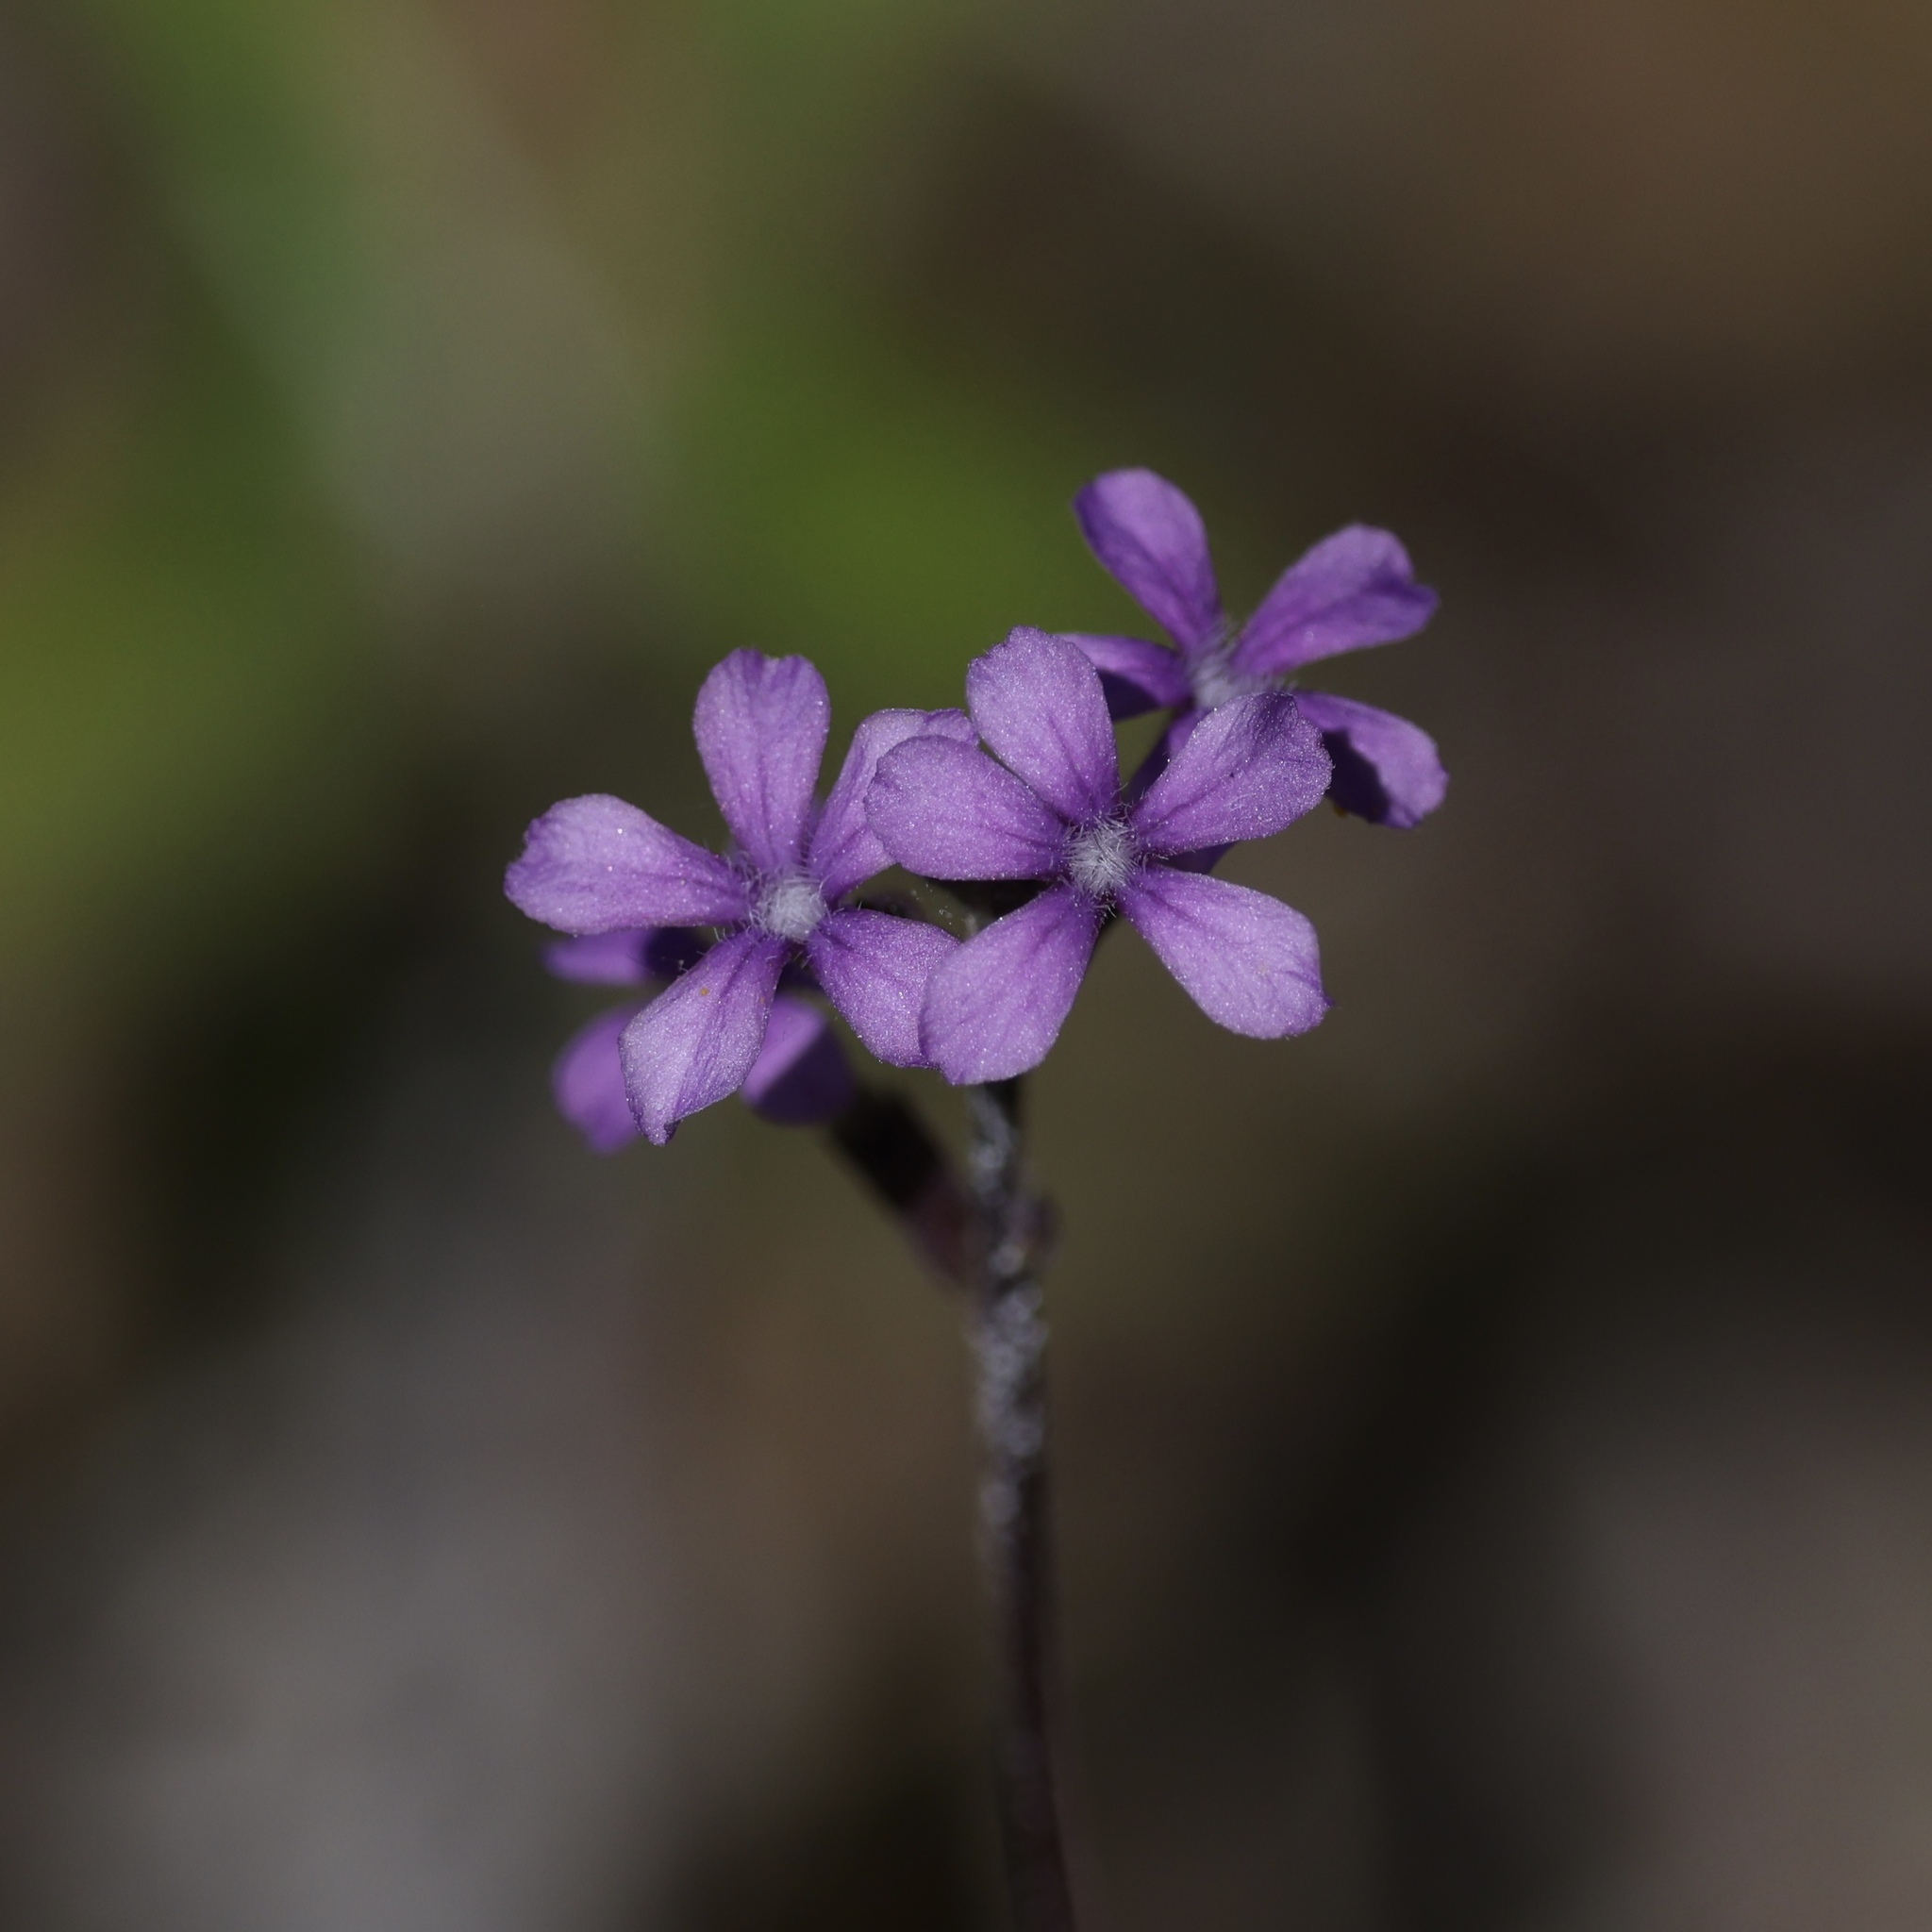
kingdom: Plantae
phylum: Tracheophyta
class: Magnoliopsida
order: Lamiales
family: Orobanchaceae
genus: Buchnera
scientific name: Buchnera floridana
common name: Florida bluehearts
